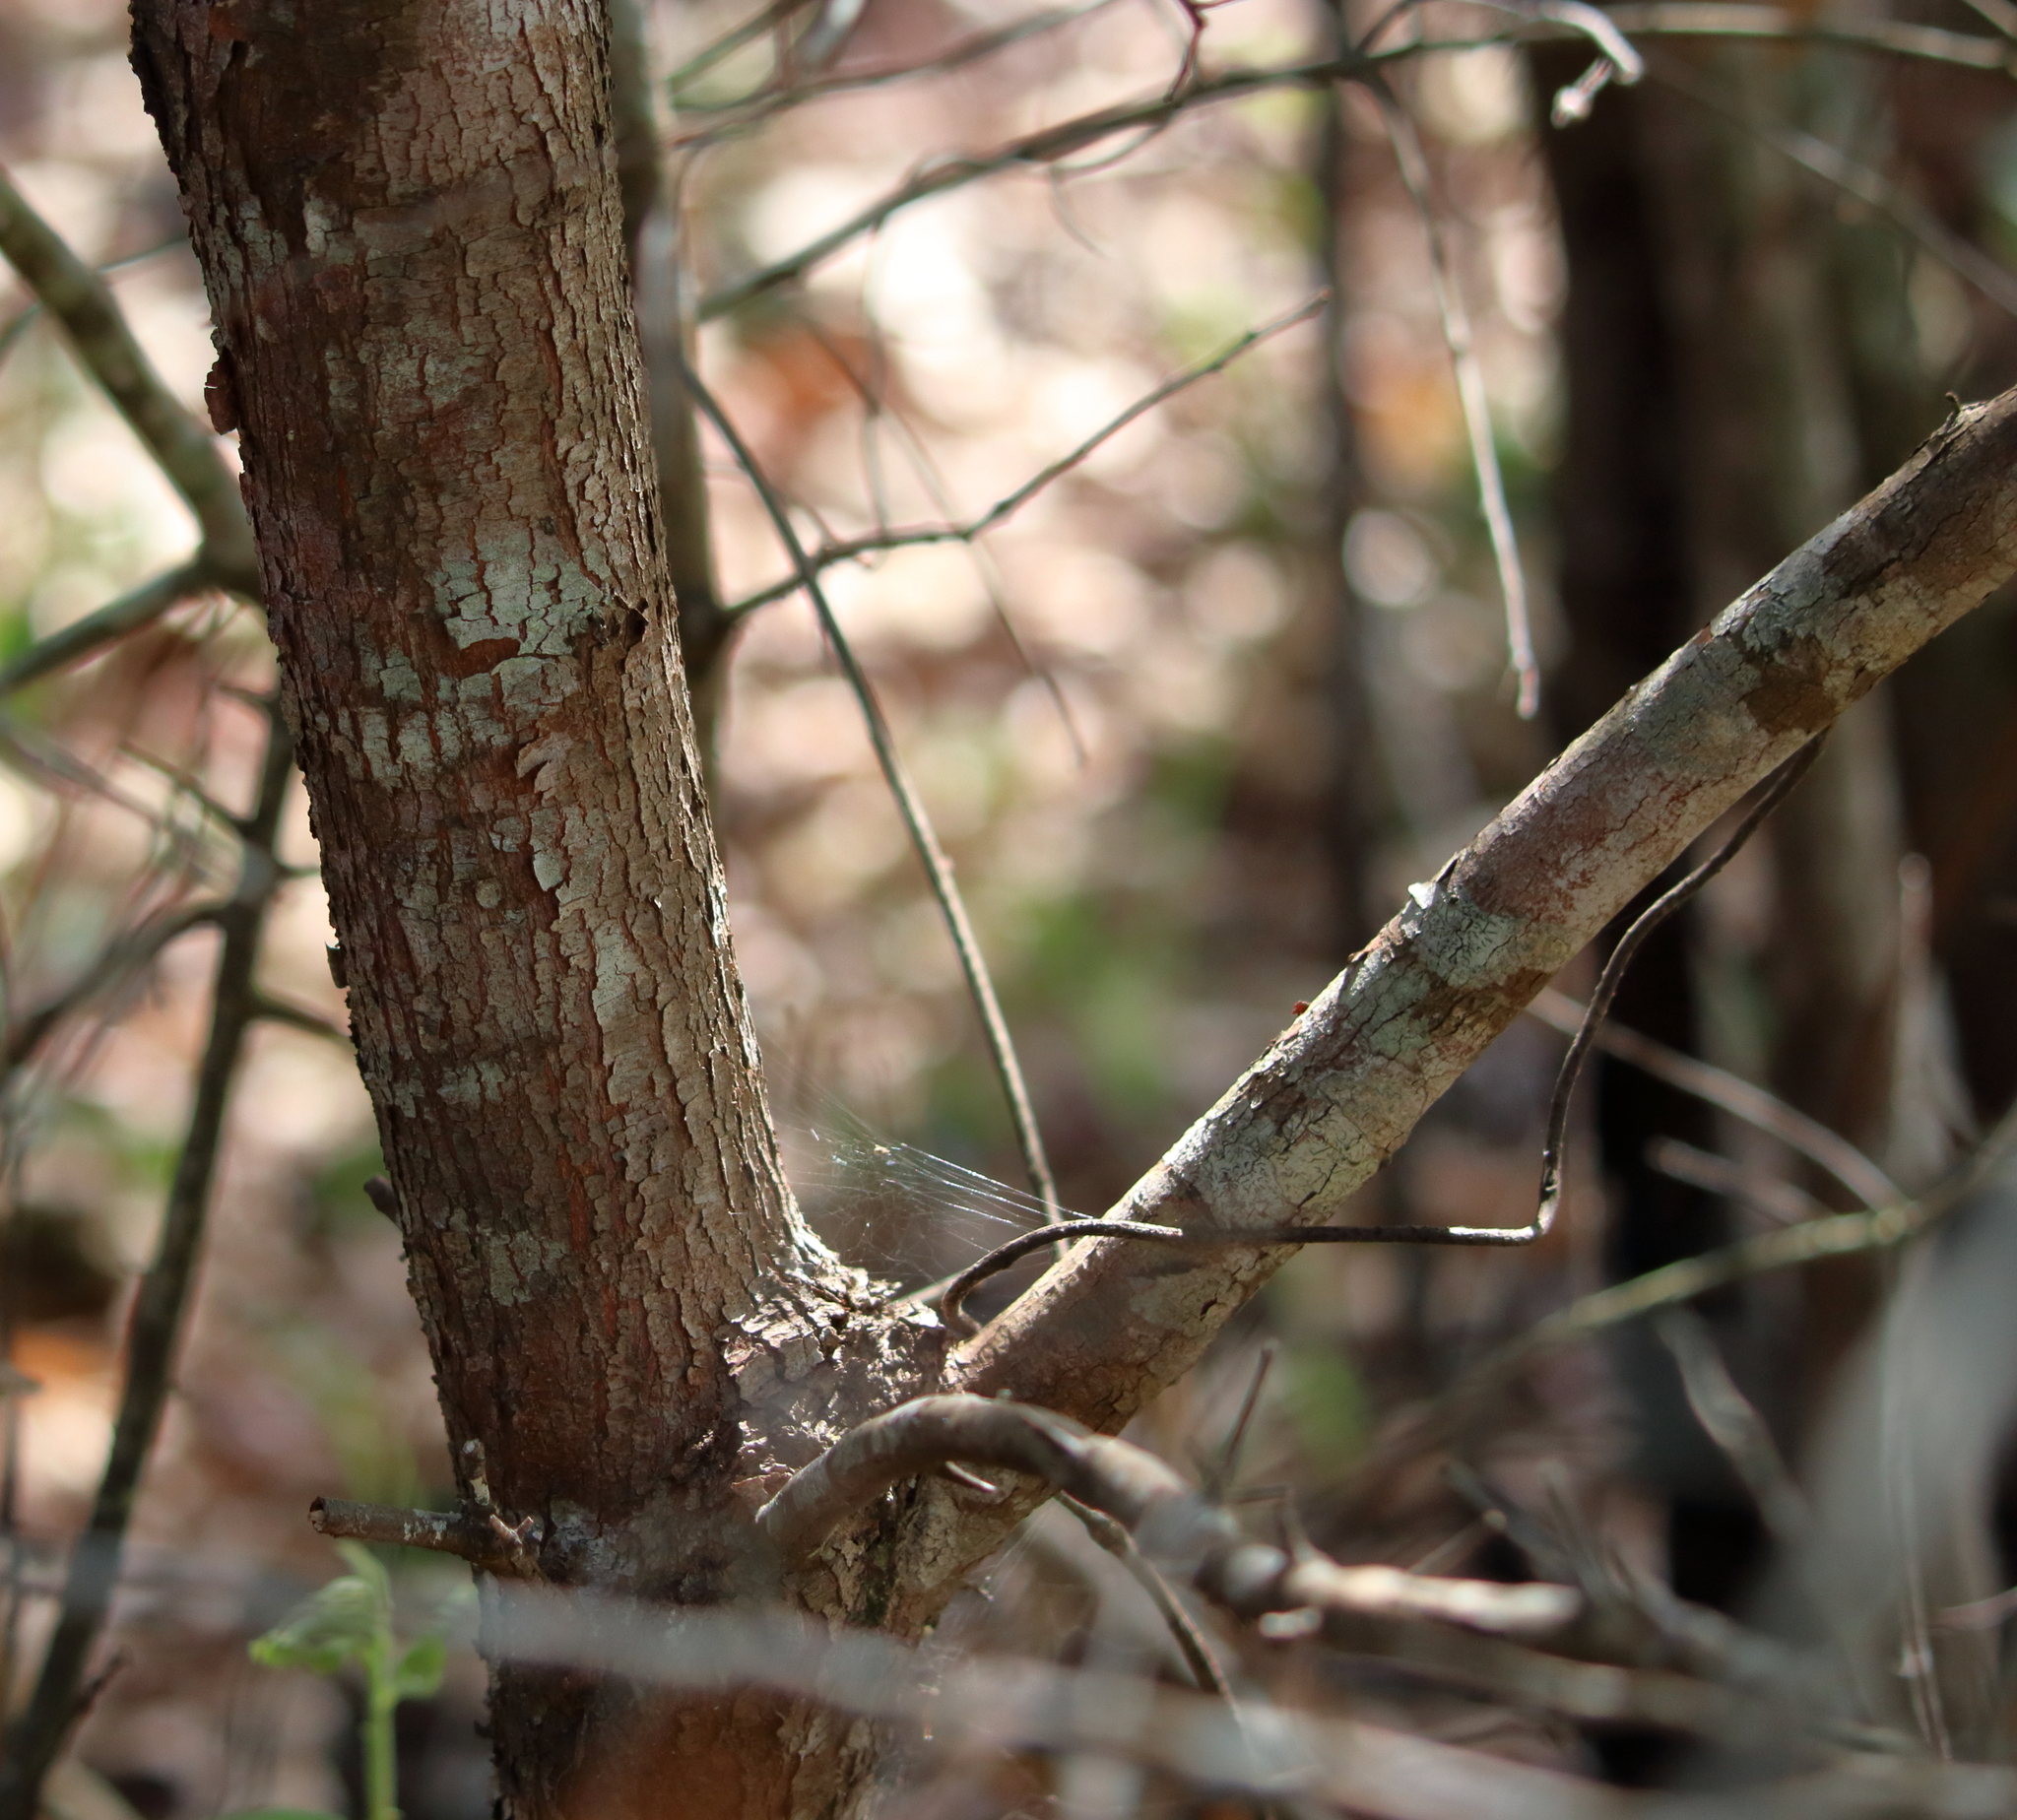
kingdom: Plantae
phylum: Tracheophyta
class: Magnoliopsida
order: Ericales
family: Ericaceae
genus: Vaccinium
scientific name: Vaccinium arboreum
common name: Farkleberry
